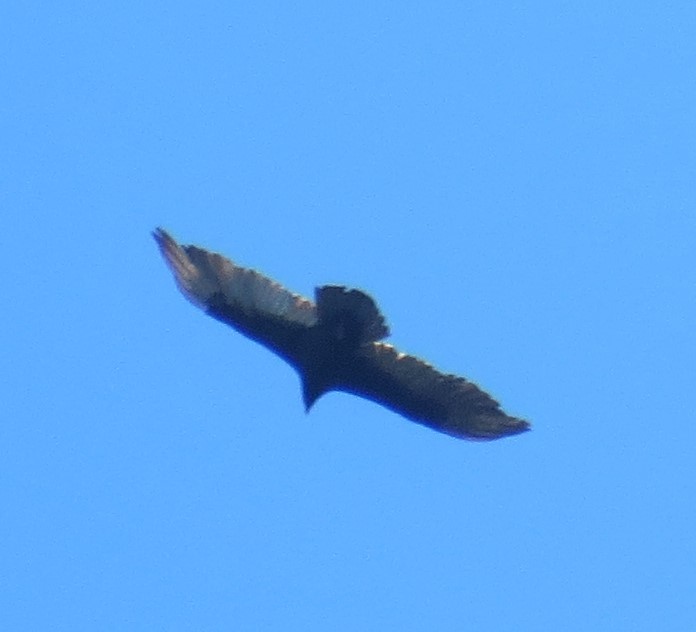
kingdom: Animalia
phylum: Chordata
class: Aves
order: Accipitriformes
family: Cathartidae
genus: Cathartes
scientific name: Cathartes aura
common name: Turkey vulture
